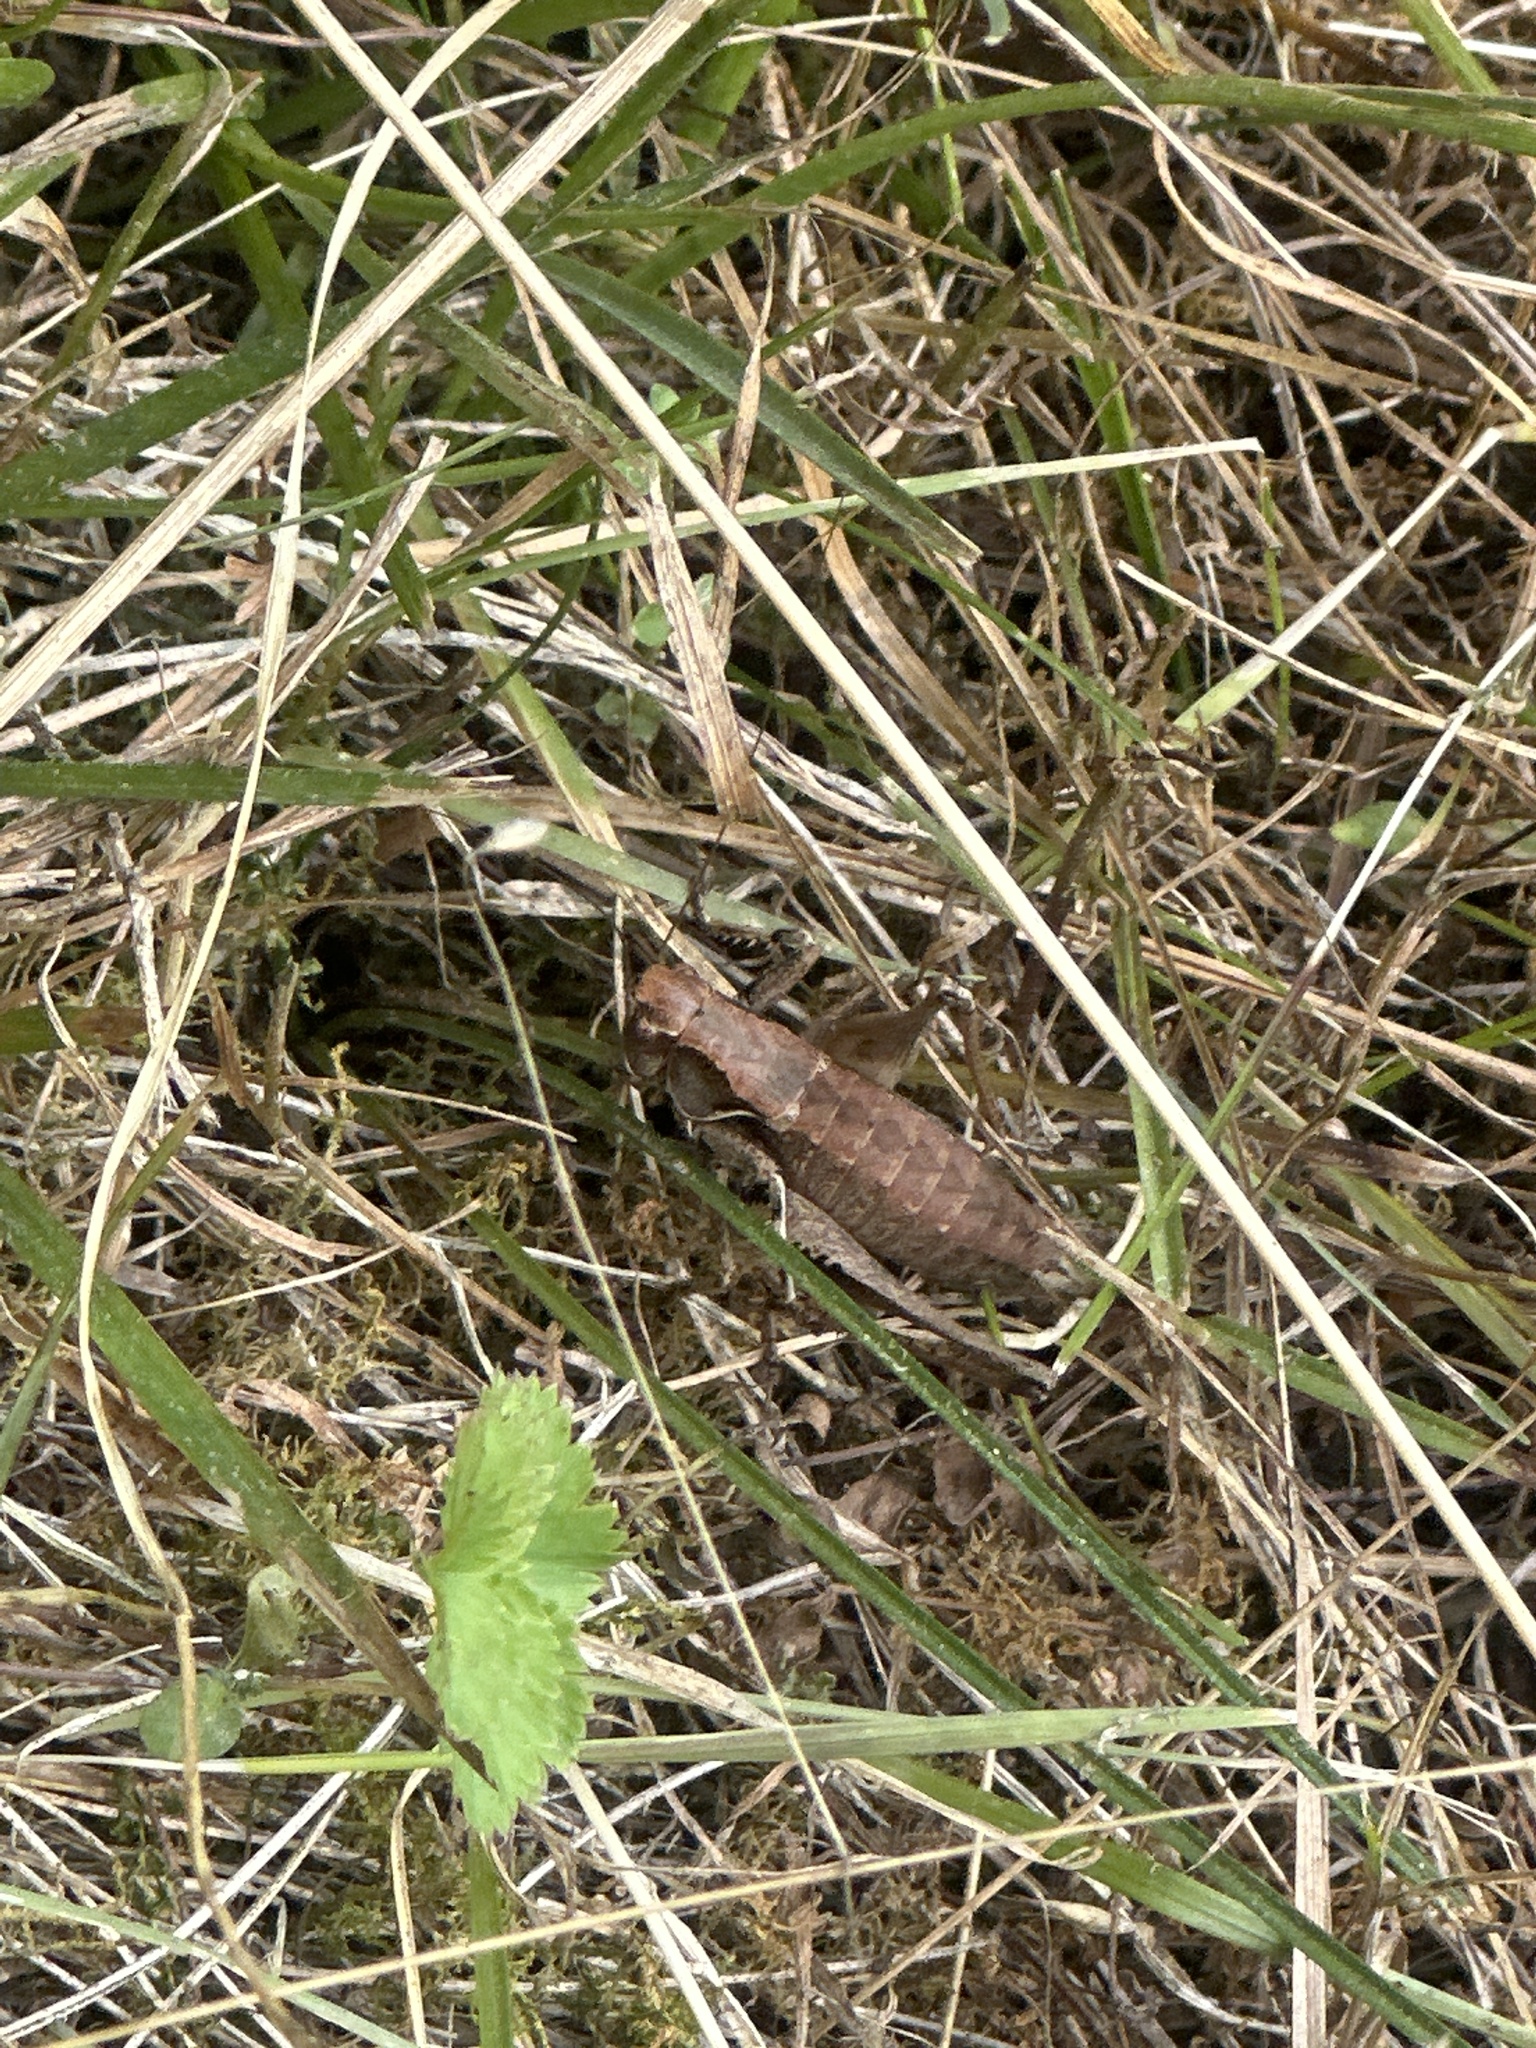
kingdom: Animalia
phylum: Arthropoda
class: Insecta
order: Orthoptera
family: Tettigoniidae
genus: Pholidoptera
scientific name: Pholidoptera griseoaptera
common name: Dark bush-cricket
